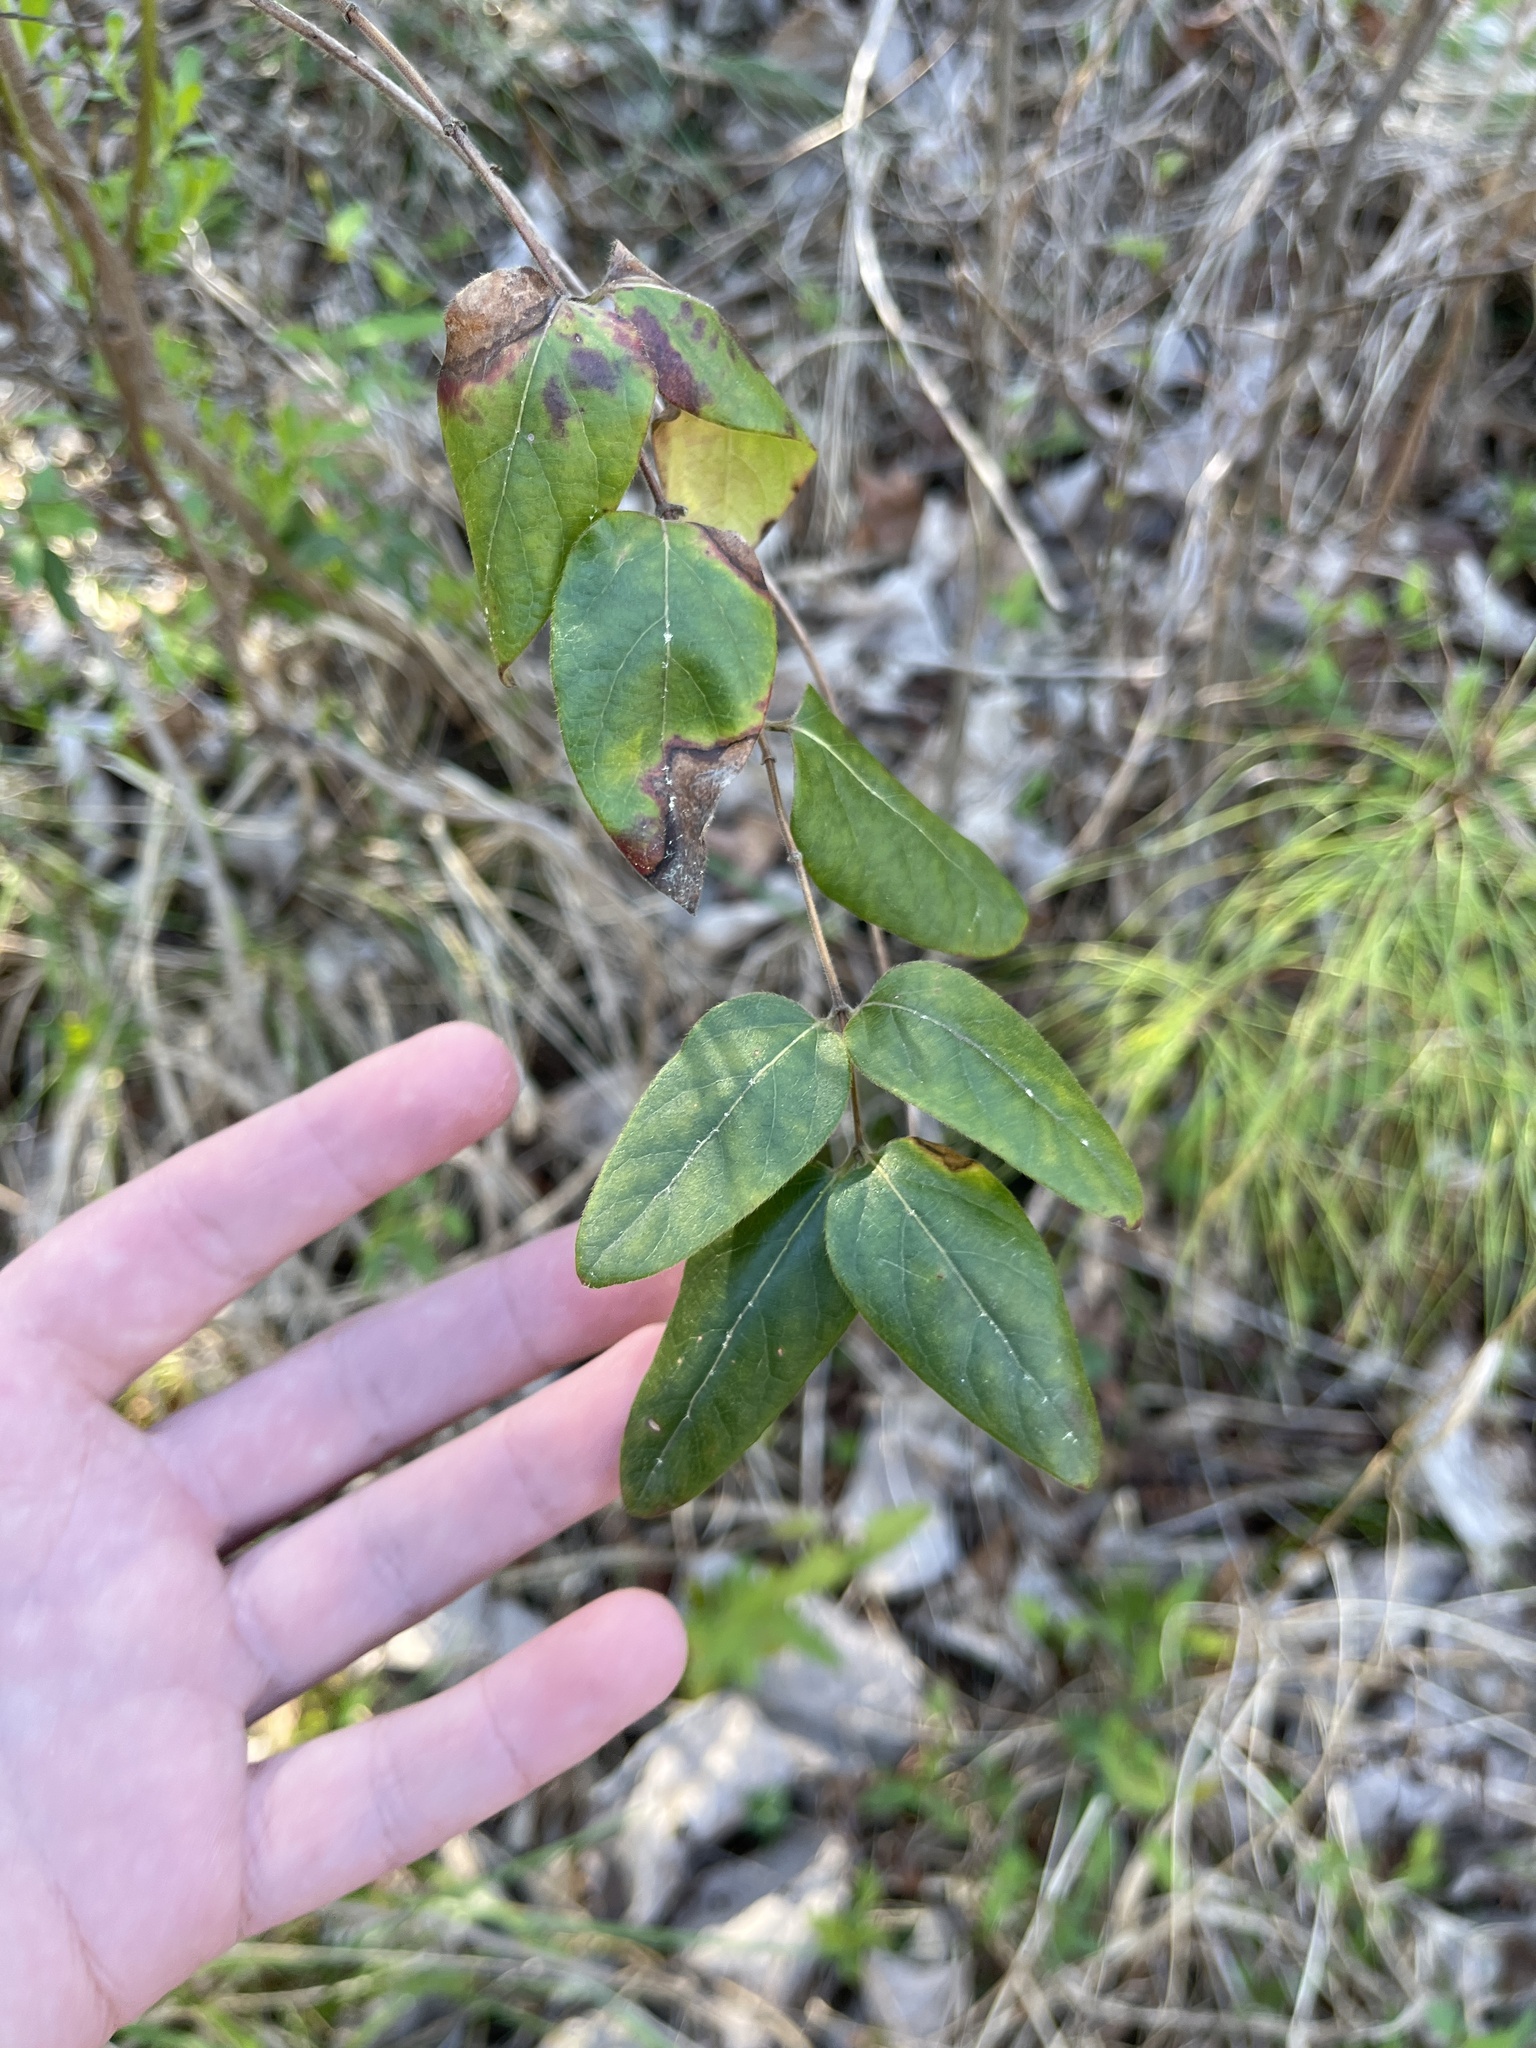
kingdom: Plantae
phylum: Tracheophyta
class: Magnoliopsida
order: Dipsacales
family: Caprifoliaceae
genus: Lonicera
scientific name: Lonicera japonica
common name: Japanese honeysuckle
